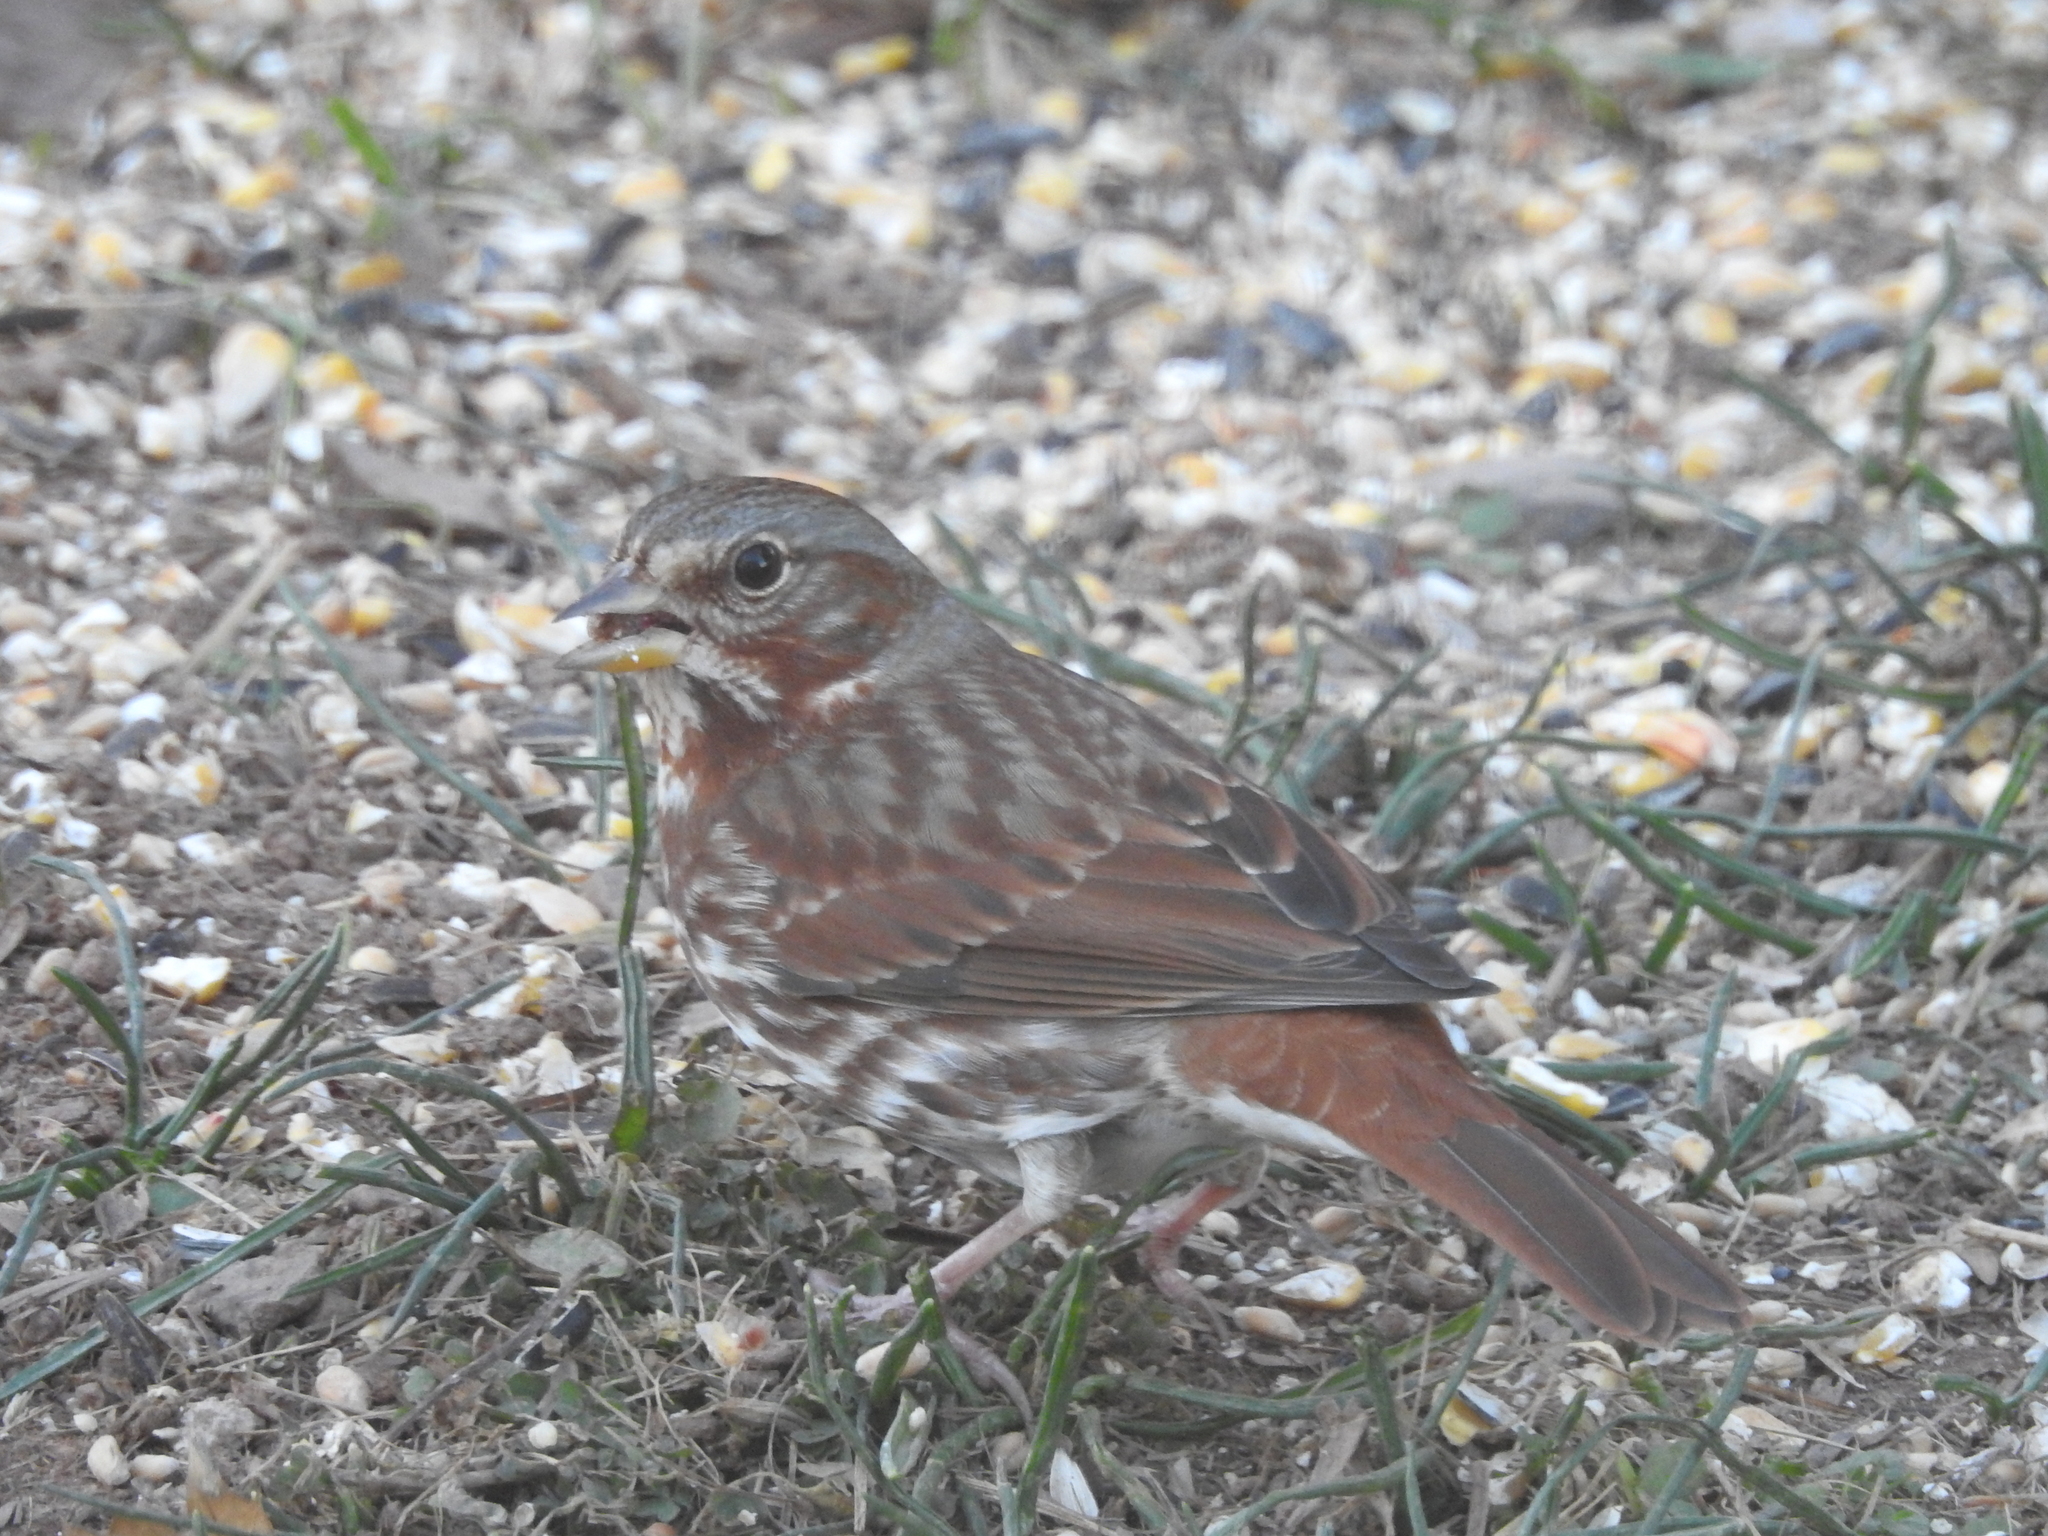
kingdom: Animalia
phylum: Chordata
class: Aves
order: Passeriformes
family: Passerellidae
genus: Passerella
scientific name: Passerella iliaca
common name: Fox sparrow
